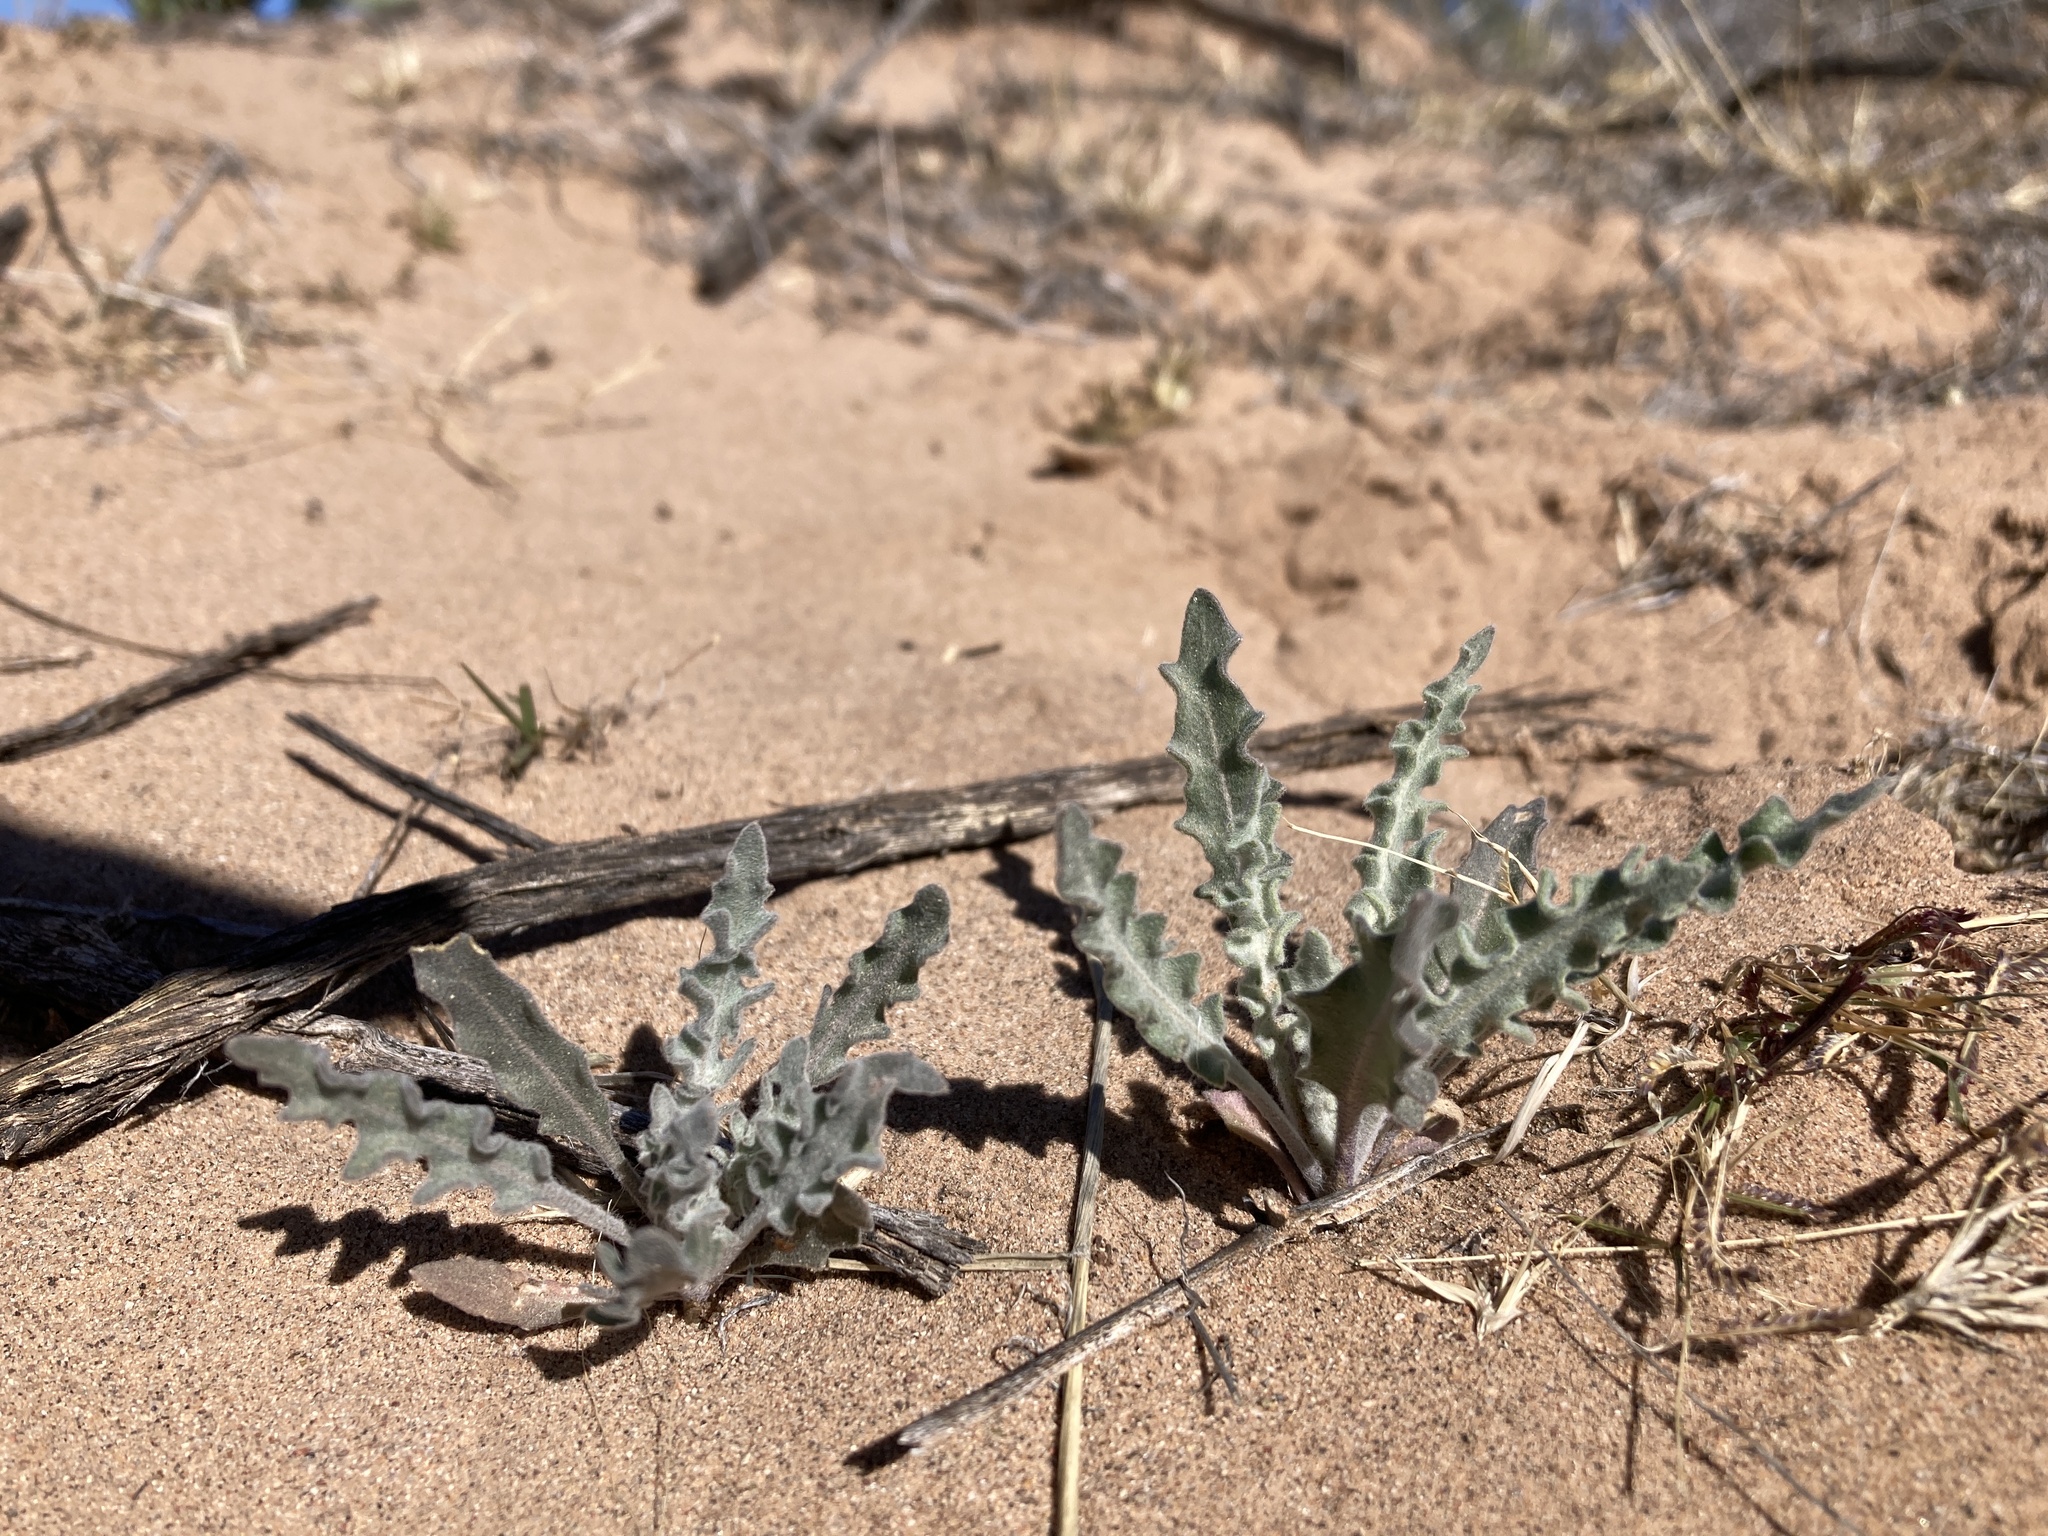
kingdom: Plantae
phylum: Tracheophyta
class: Magnoliopsida
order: Brassicales
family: Brassicaceae
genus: Dimorphocarpa
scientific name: Dimorphocarpa wislizenii
